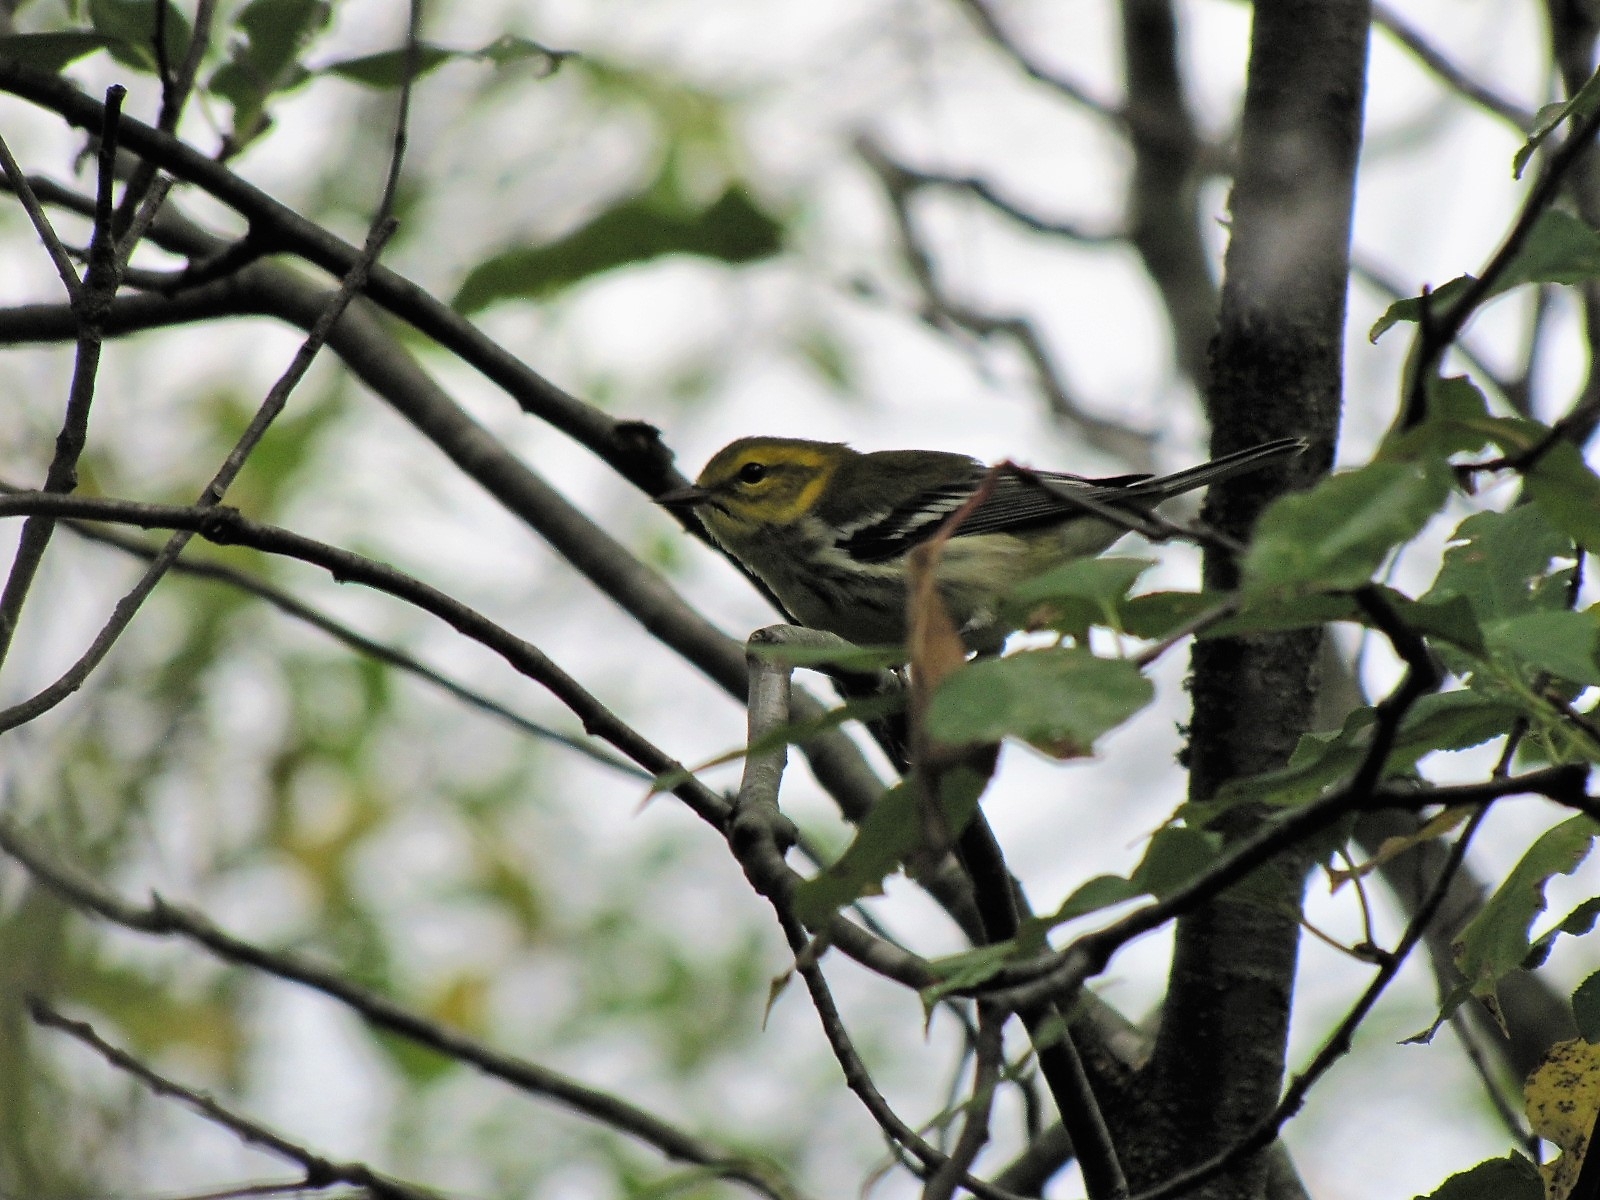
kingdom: Animalia
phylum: Chordata
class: Aves
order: Passeriformes
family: Parulidae
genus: Setophaga
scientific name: Setophaga virens
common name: Black-throated green warbler
